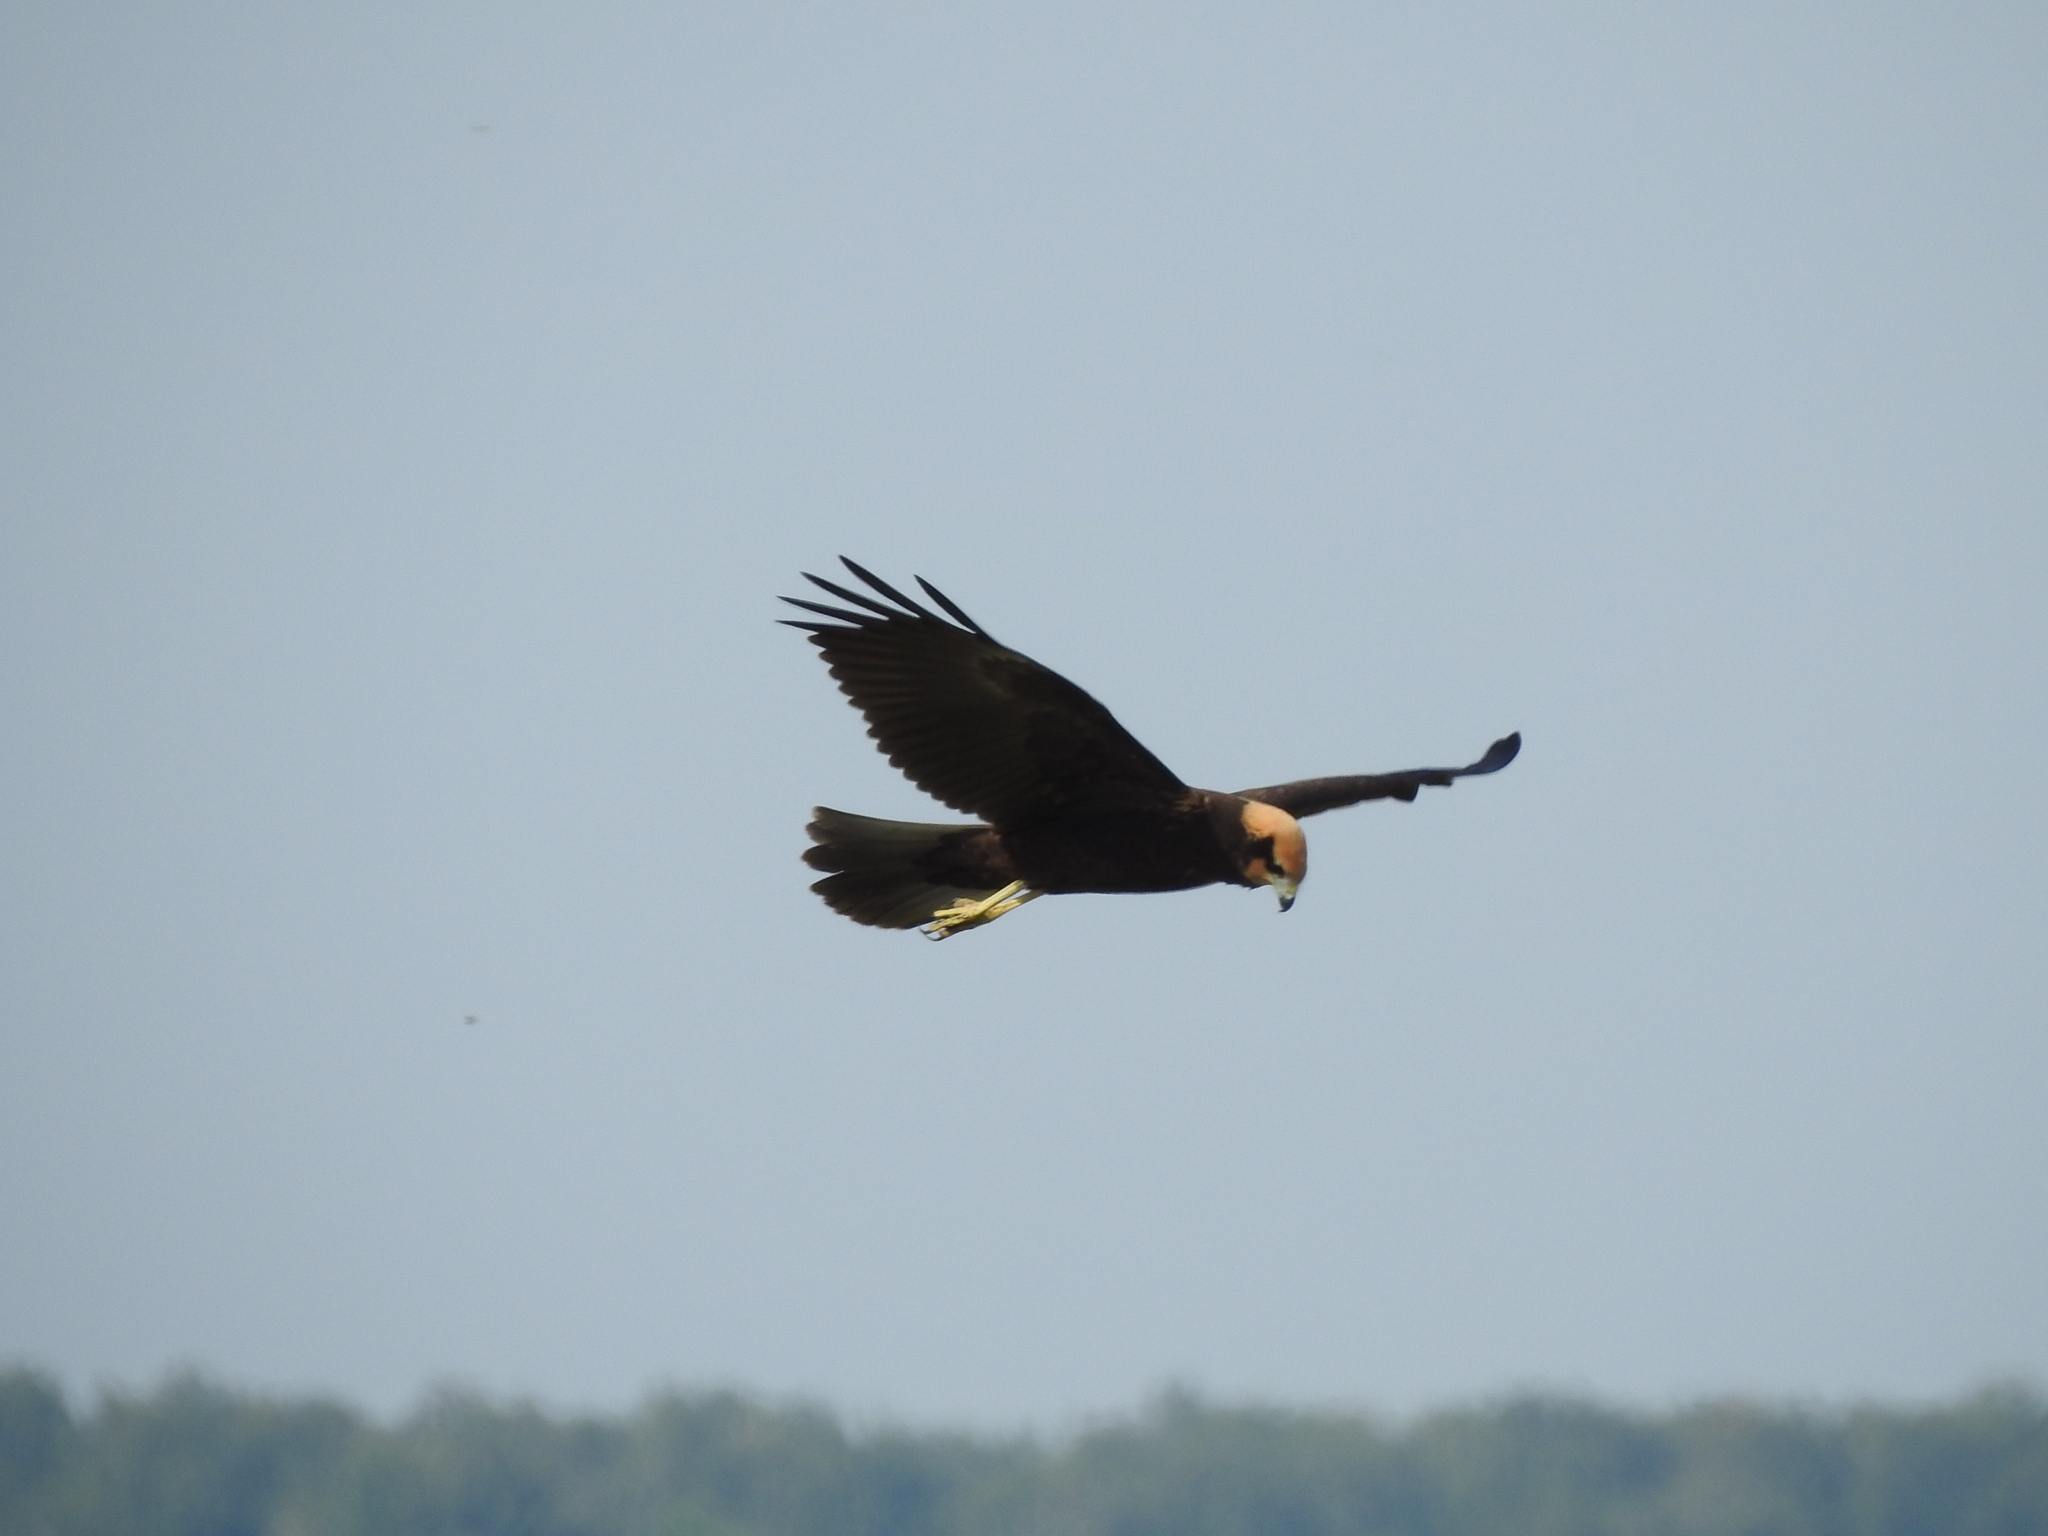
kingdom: Animalia
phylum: Chordata
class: Aves
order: Accipitriformes
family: Accipitridae
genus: Circus
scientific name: Circus aeruginosus
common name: Western marsh harrier
